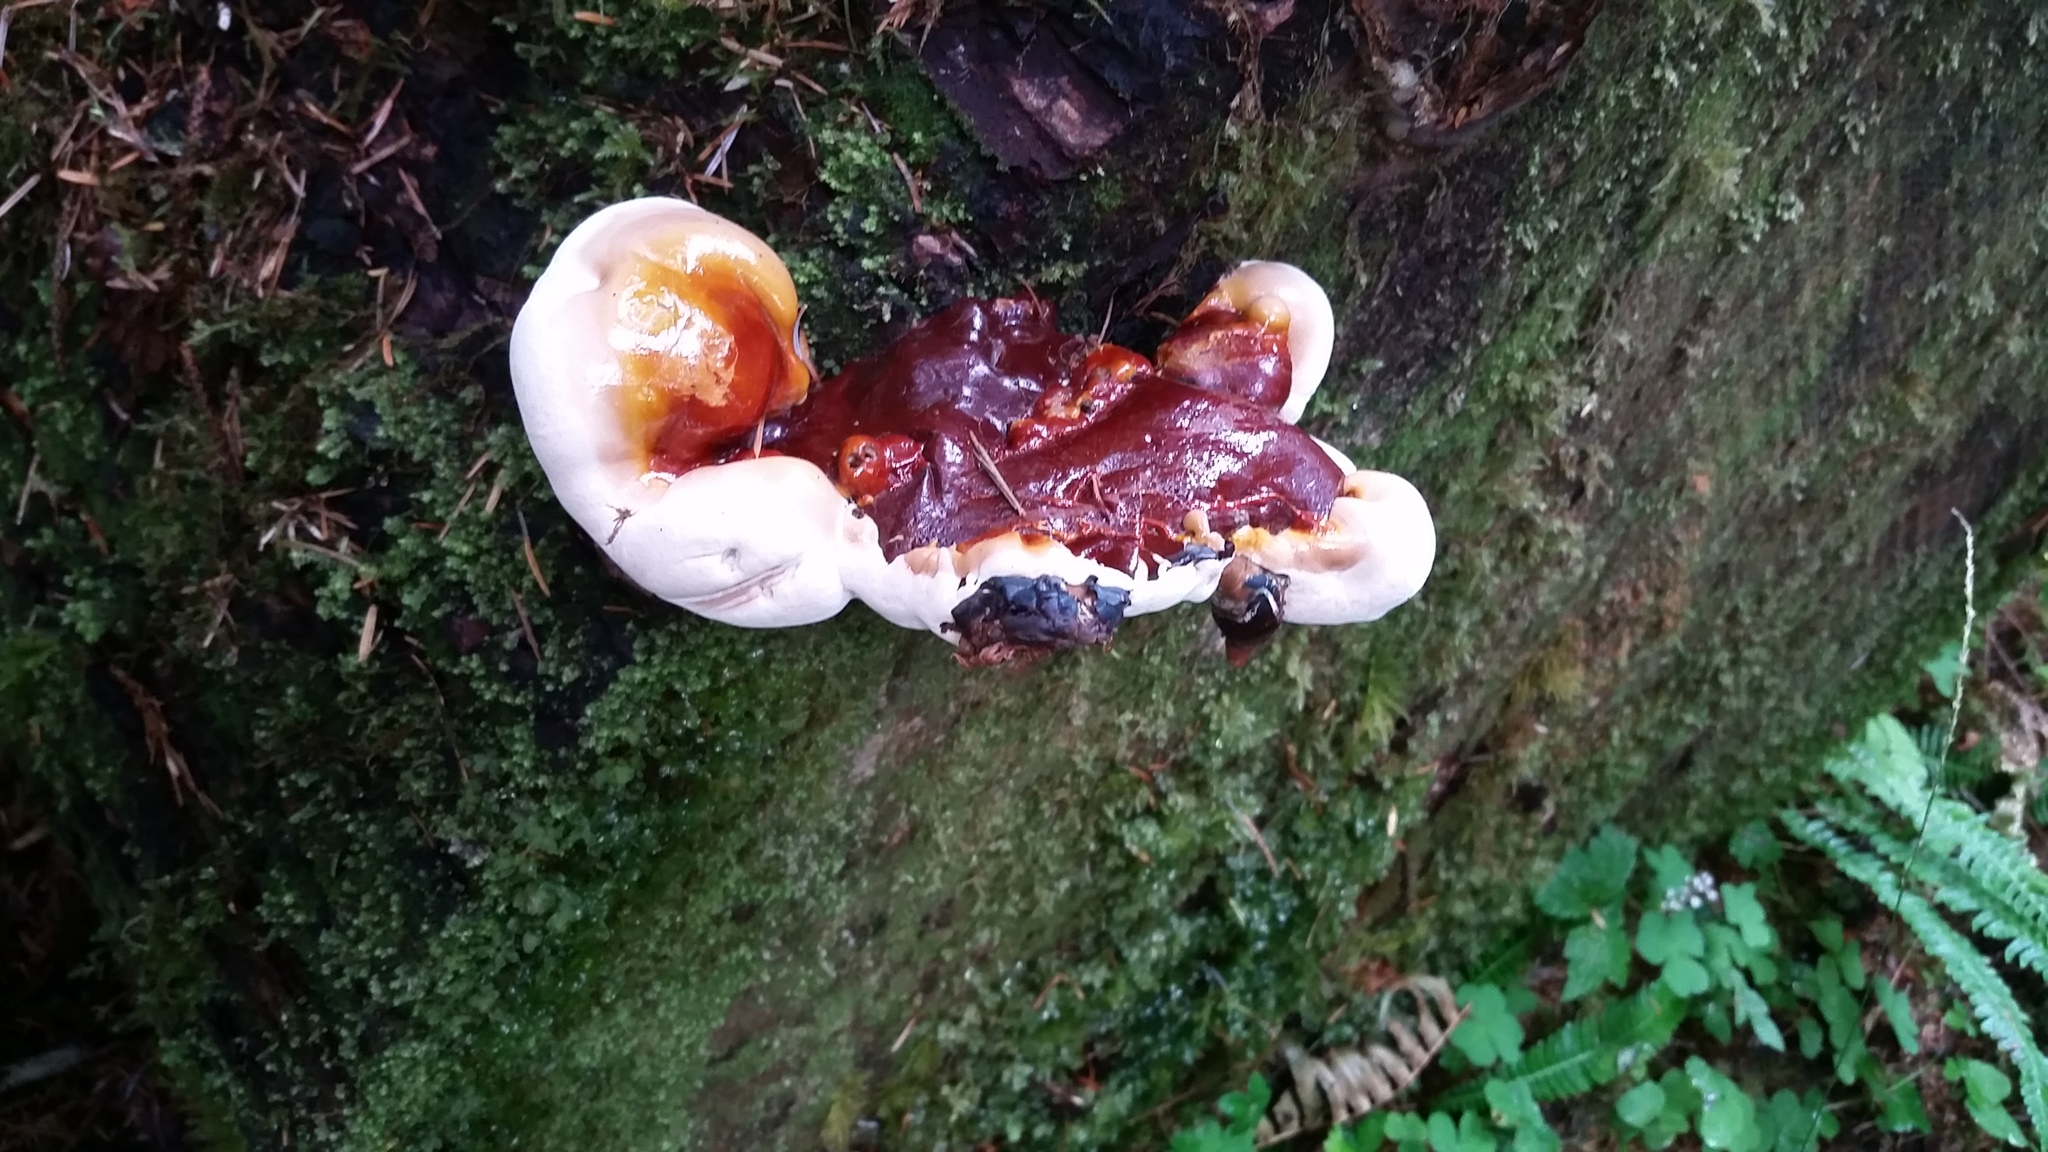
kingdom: Fungi
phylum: Basidiomycota
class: Agaricomycetes
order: Polyporales
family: Polyporaceae
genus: Ganoderma
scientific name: Ganoderma oregonense
